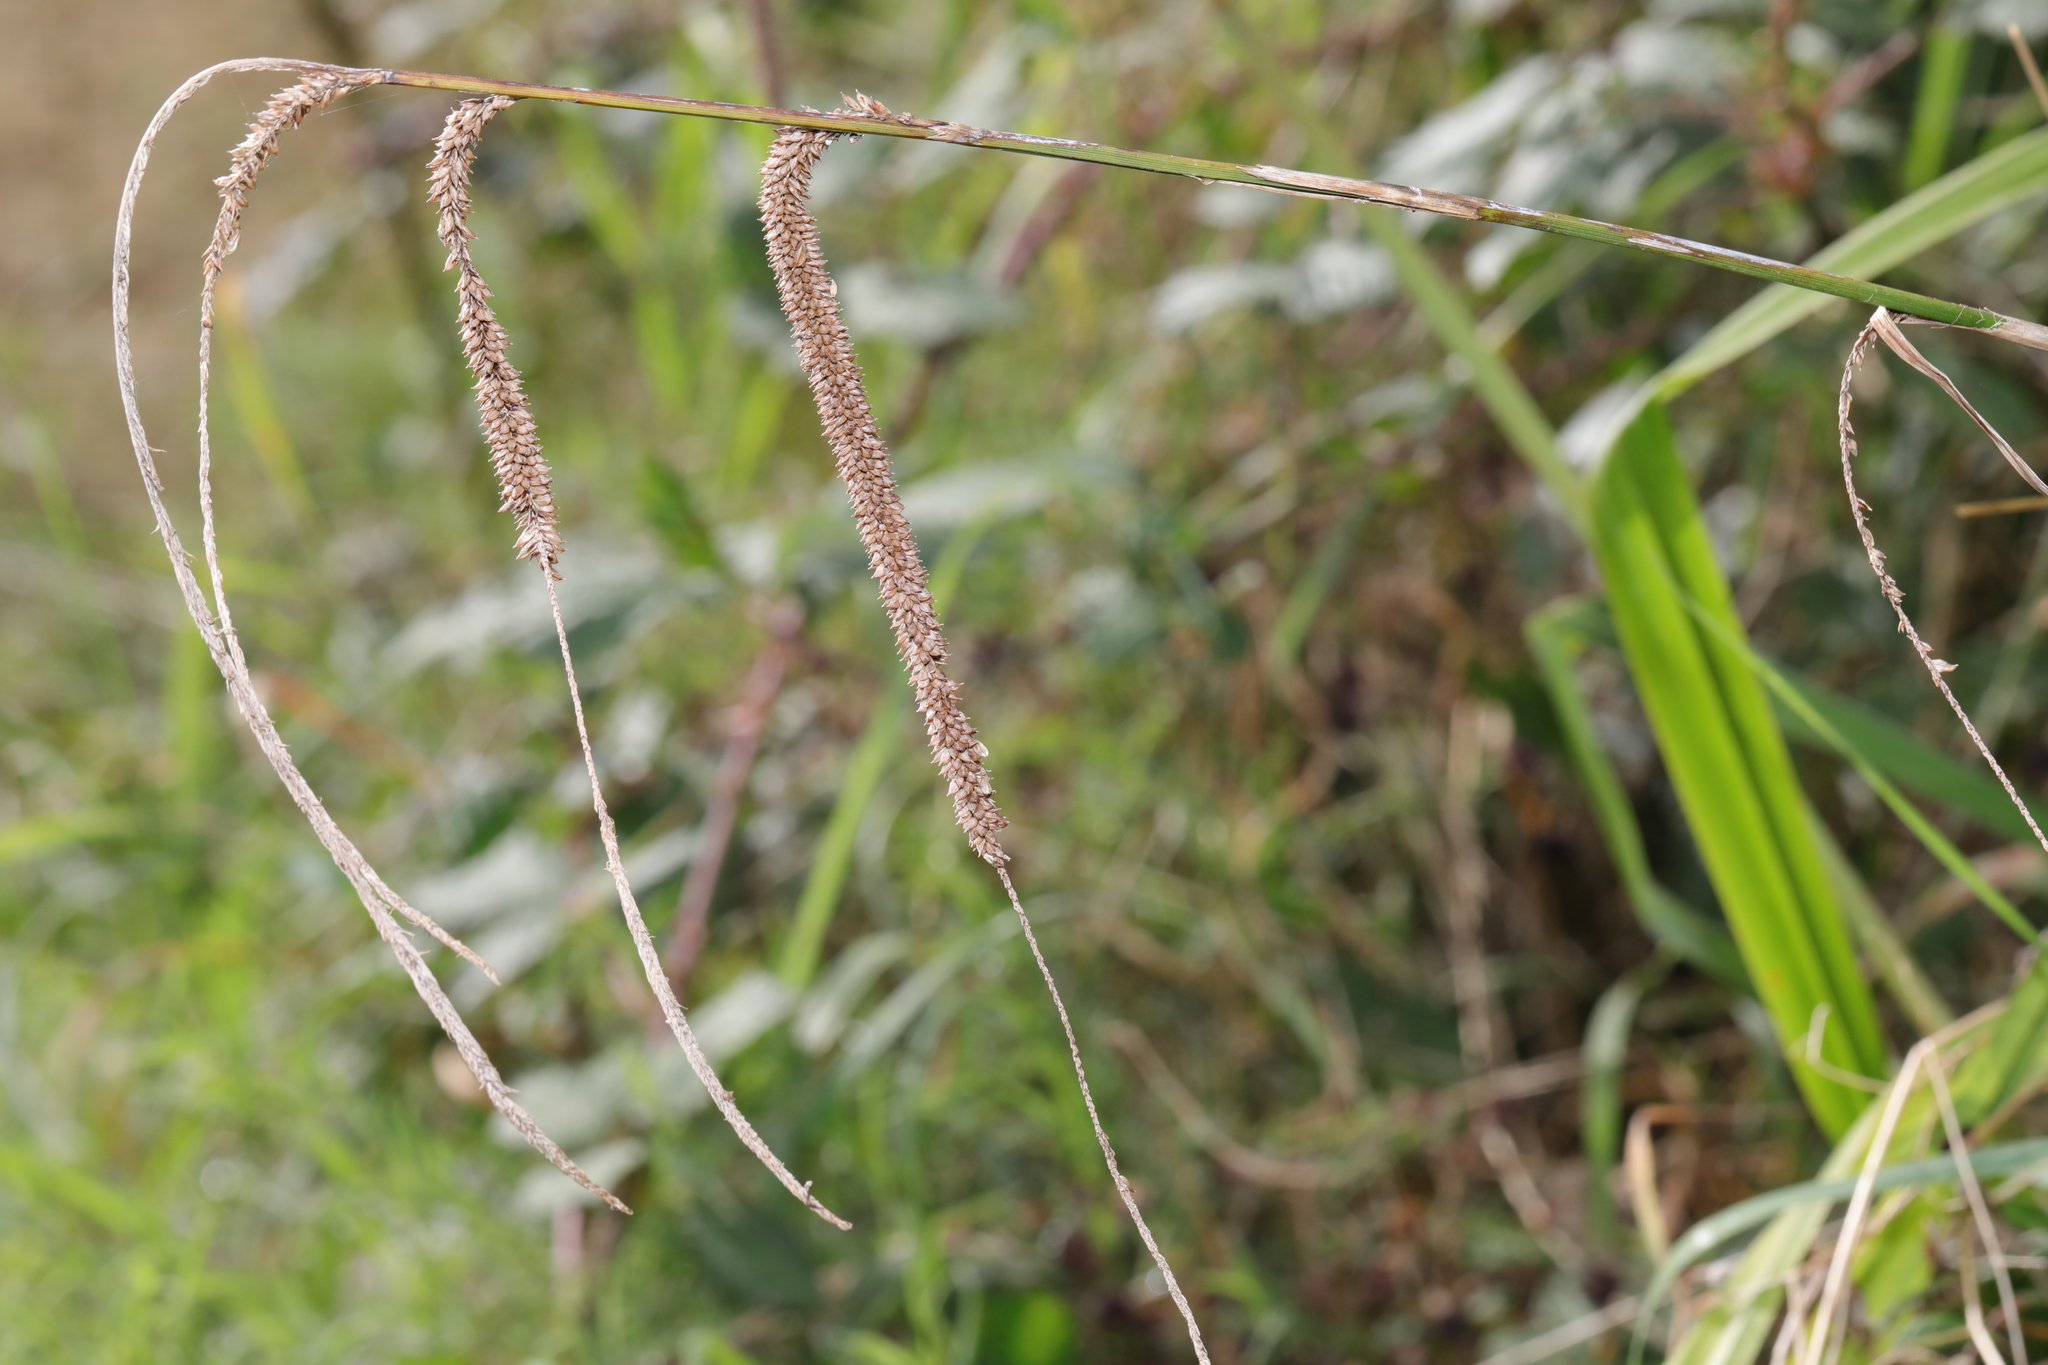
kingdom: Plantae
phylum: Tracheophyta
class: Liliopsida
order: Poales
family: Cyperaceae
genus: Carex
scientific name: Carex pendula
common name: Pendulous sedge
